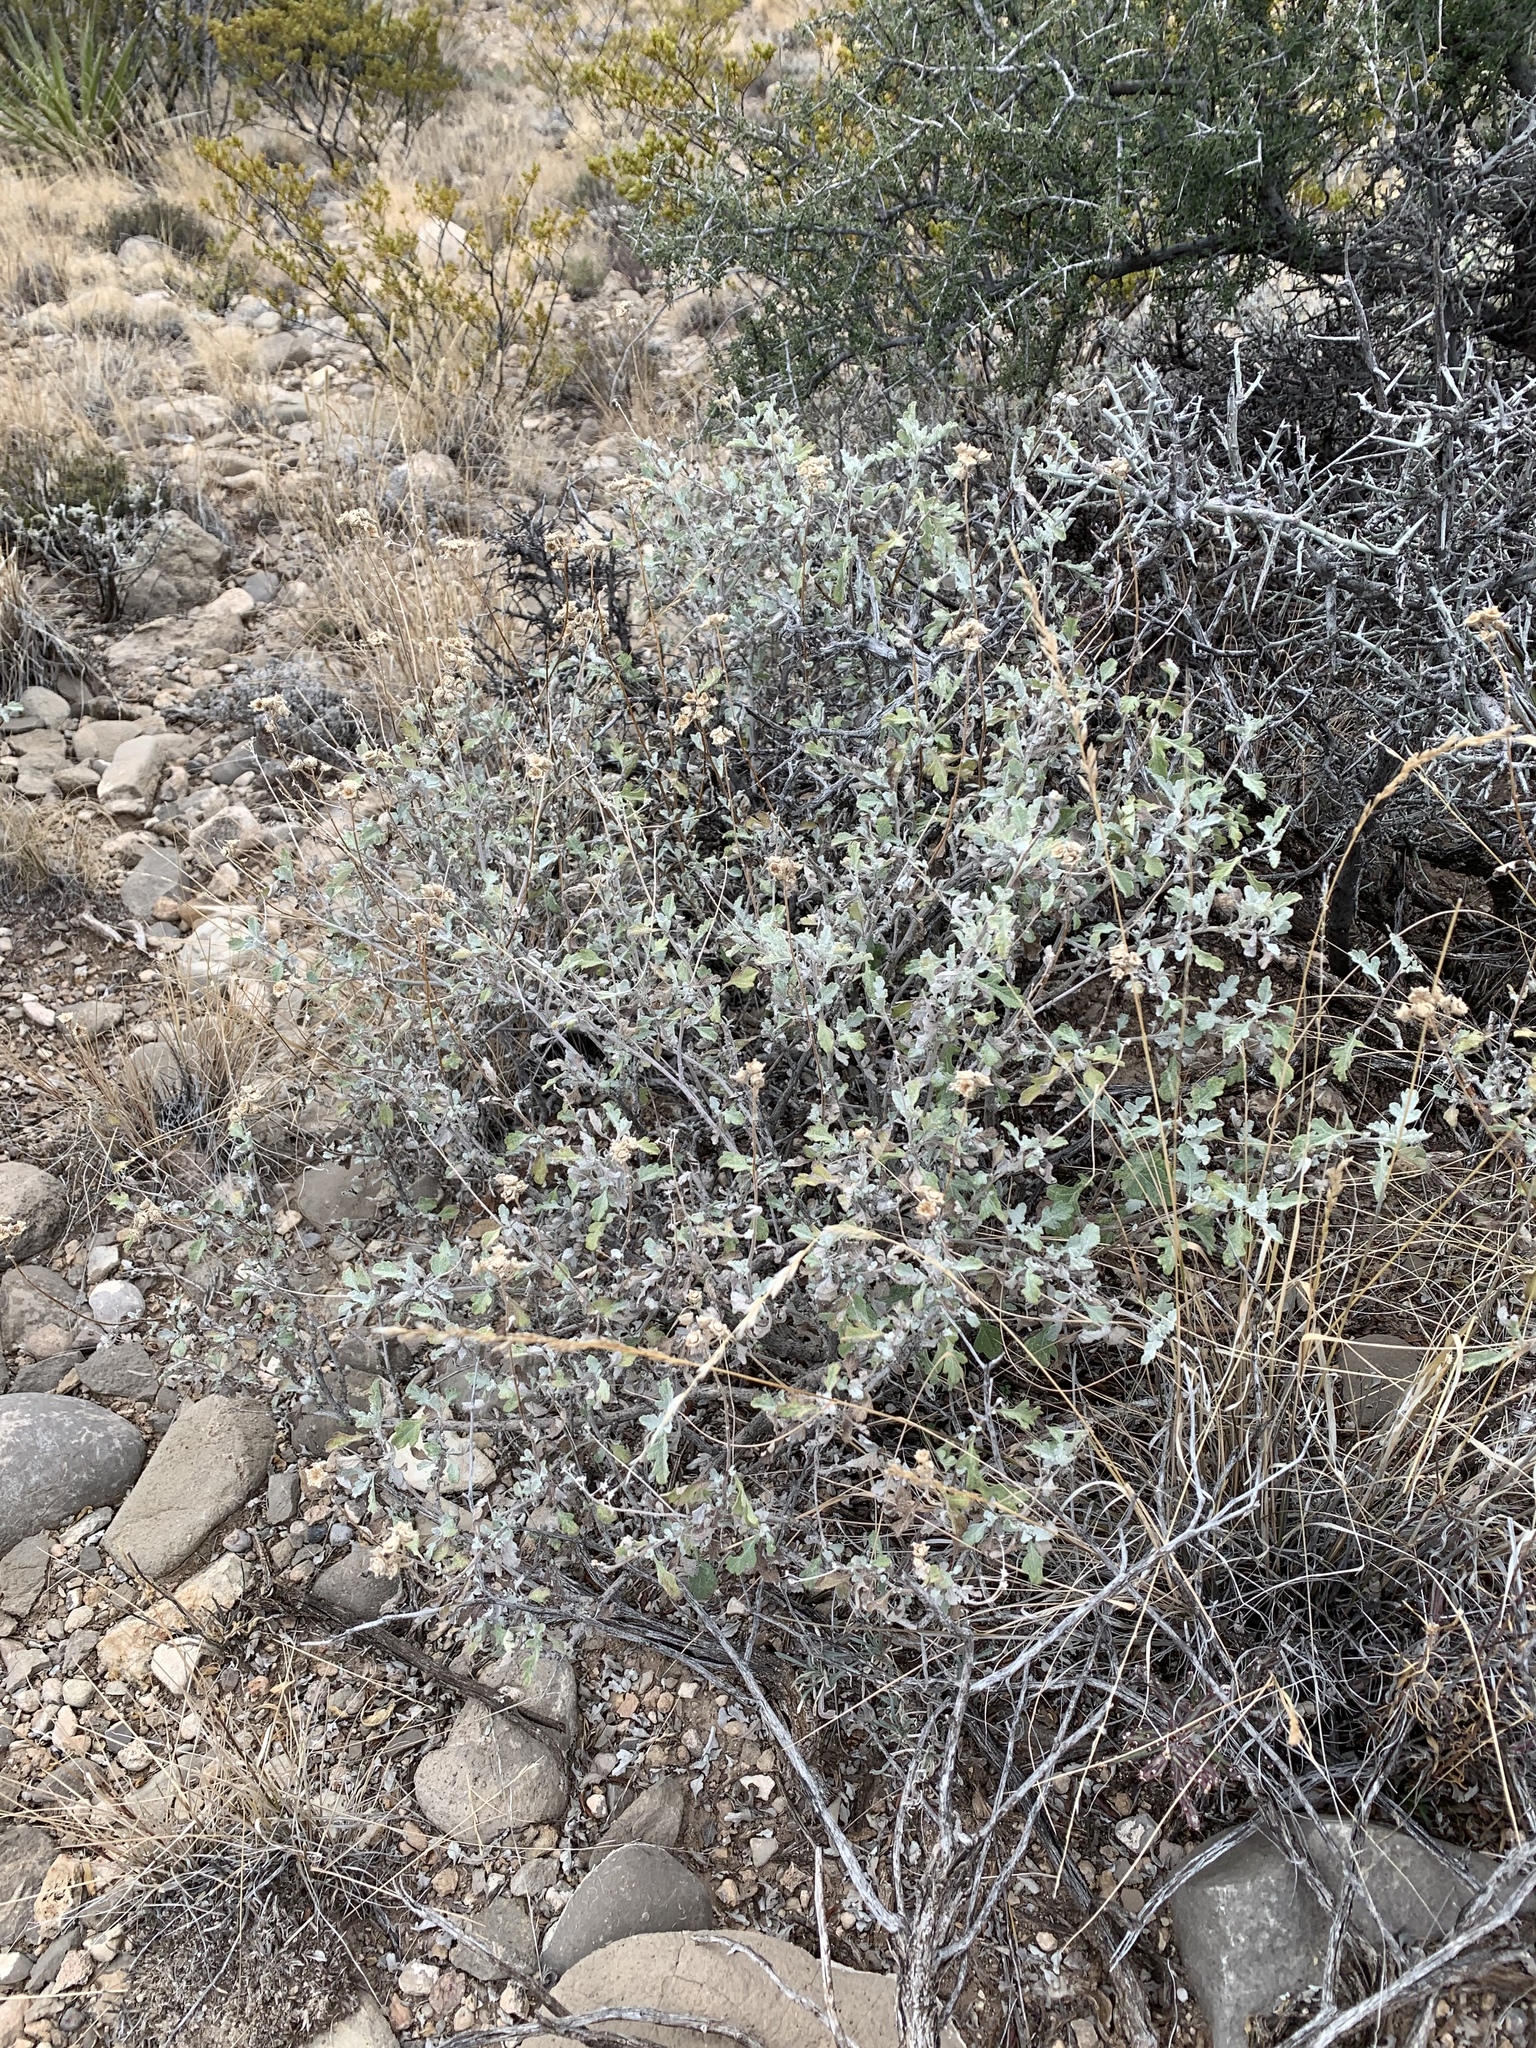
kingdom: Plantae
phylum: Tracheophyta
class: Magnoliopsida
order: Asterales
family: Asteraceae
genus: Parthenium
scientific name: Parthenium incanum
